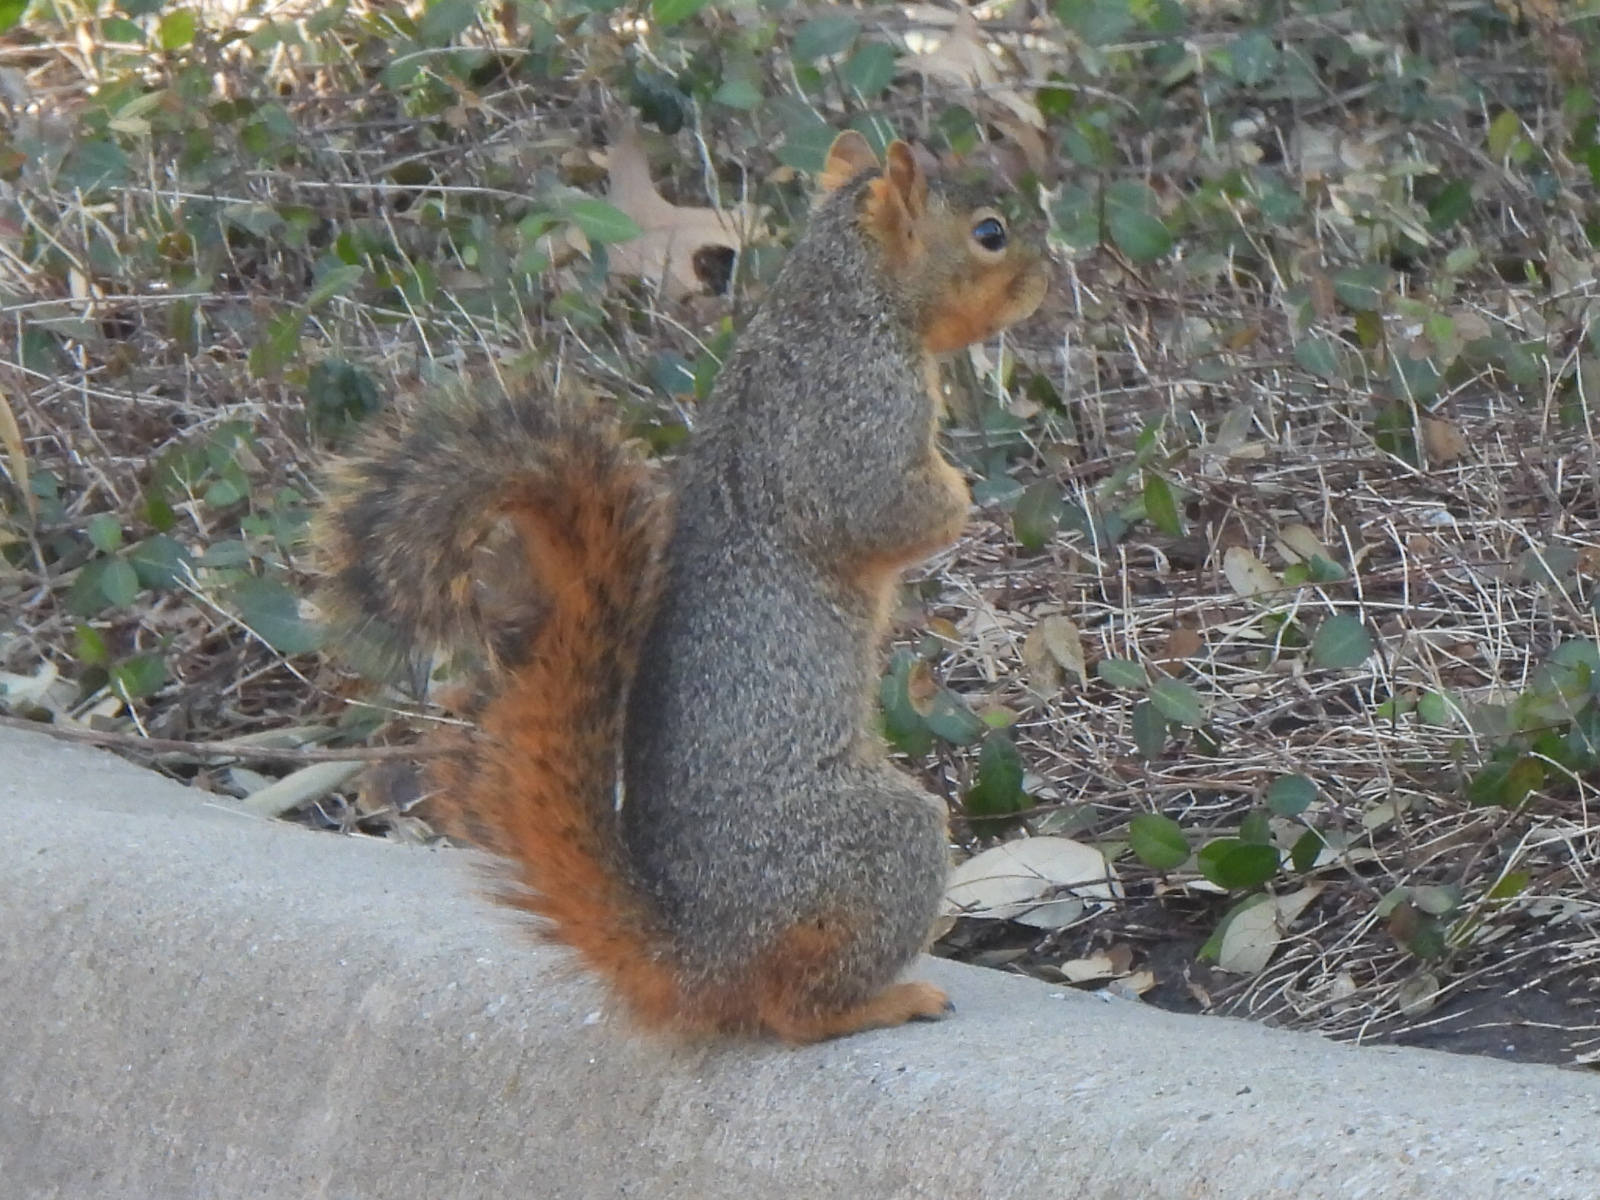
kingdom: Animalia
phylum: Chordata
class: Mammalia
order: Rodentia
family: Sciuridae
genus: Sciurus
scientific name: Sciurus niger
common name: Fox squirrel
